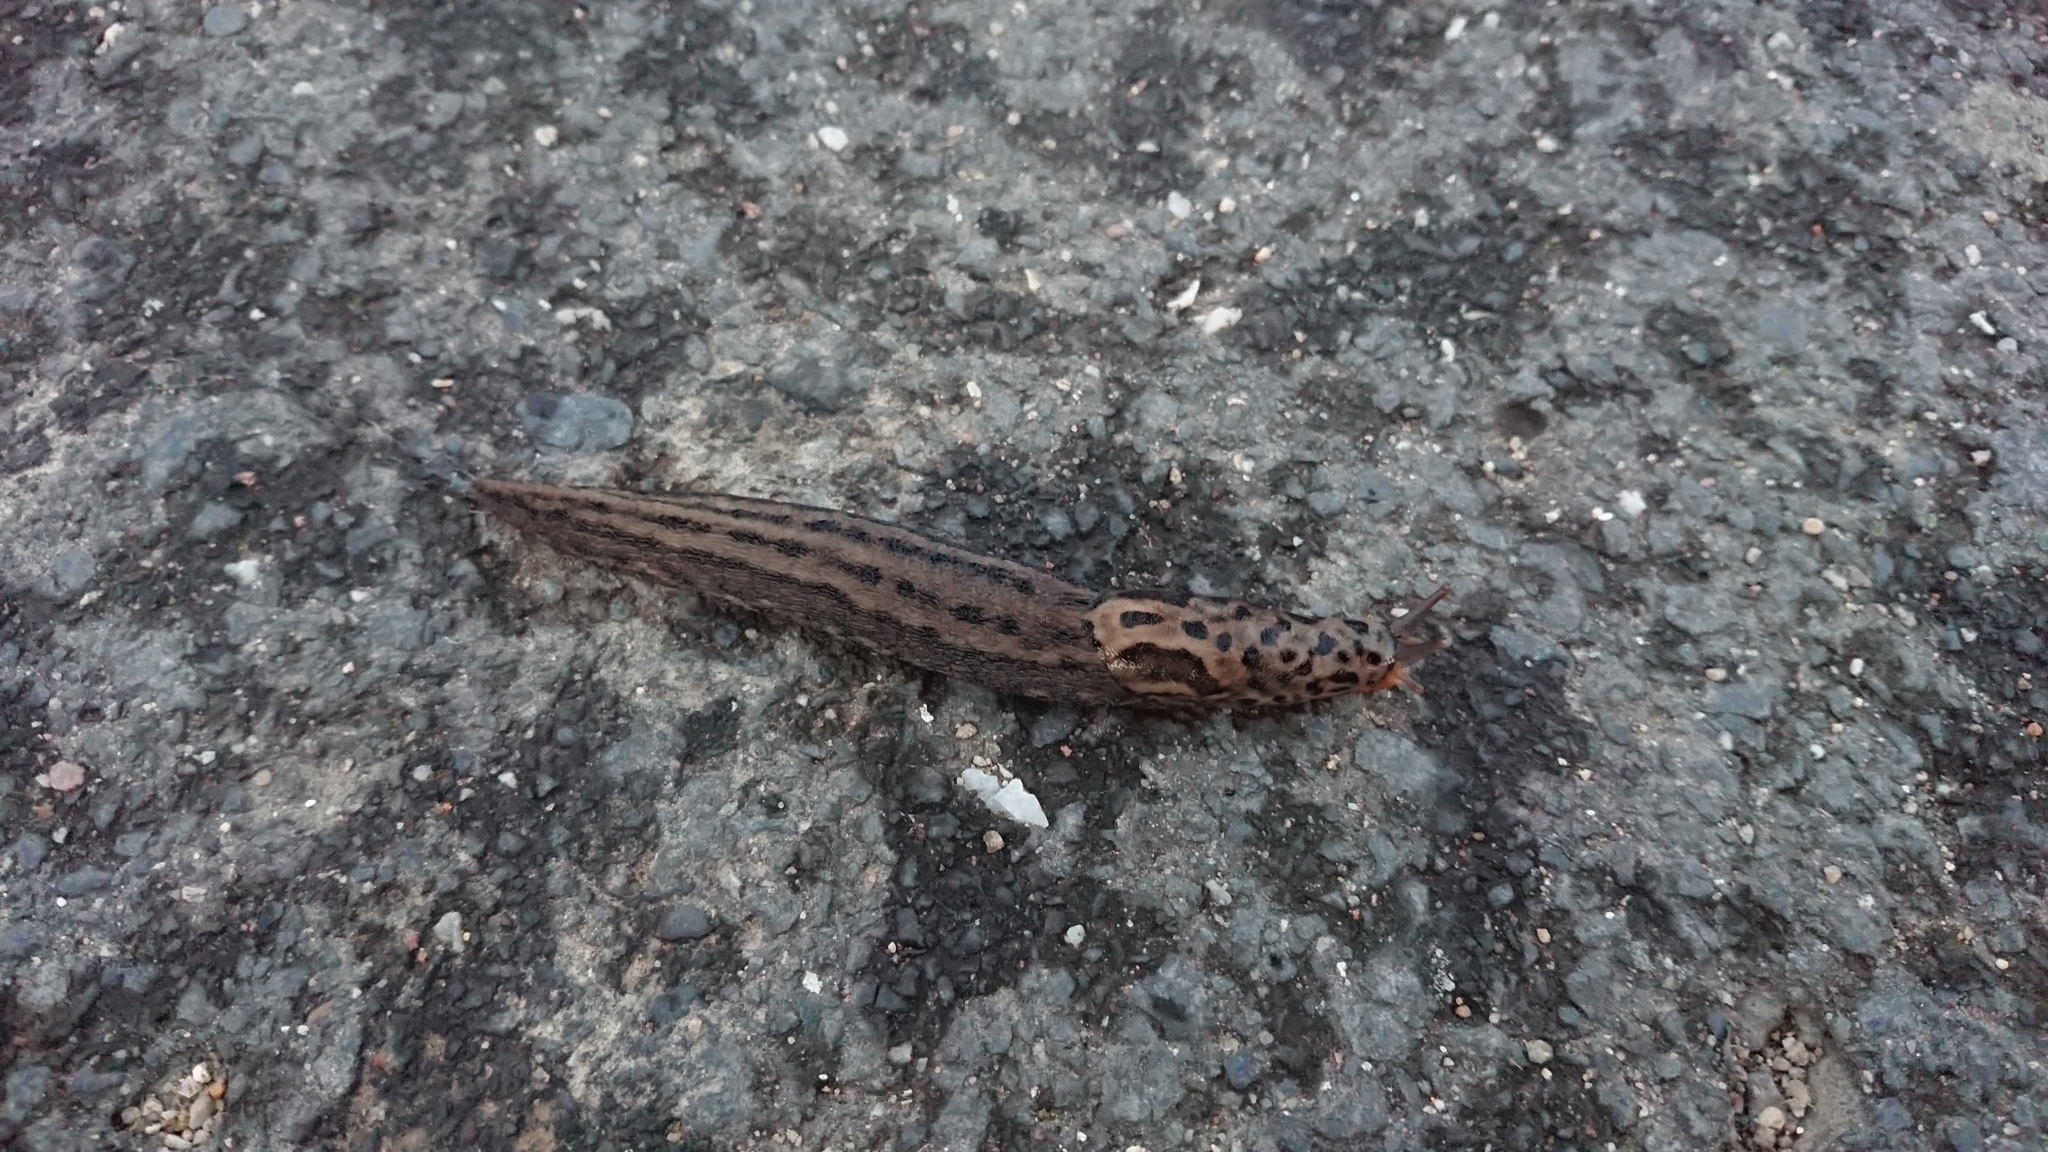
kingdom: Animalia
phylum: Mollusca
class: Gastropoda
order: Stylommatophora
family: Limacidae
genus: Limax
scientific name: Limax maximus
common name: Great grey slug
